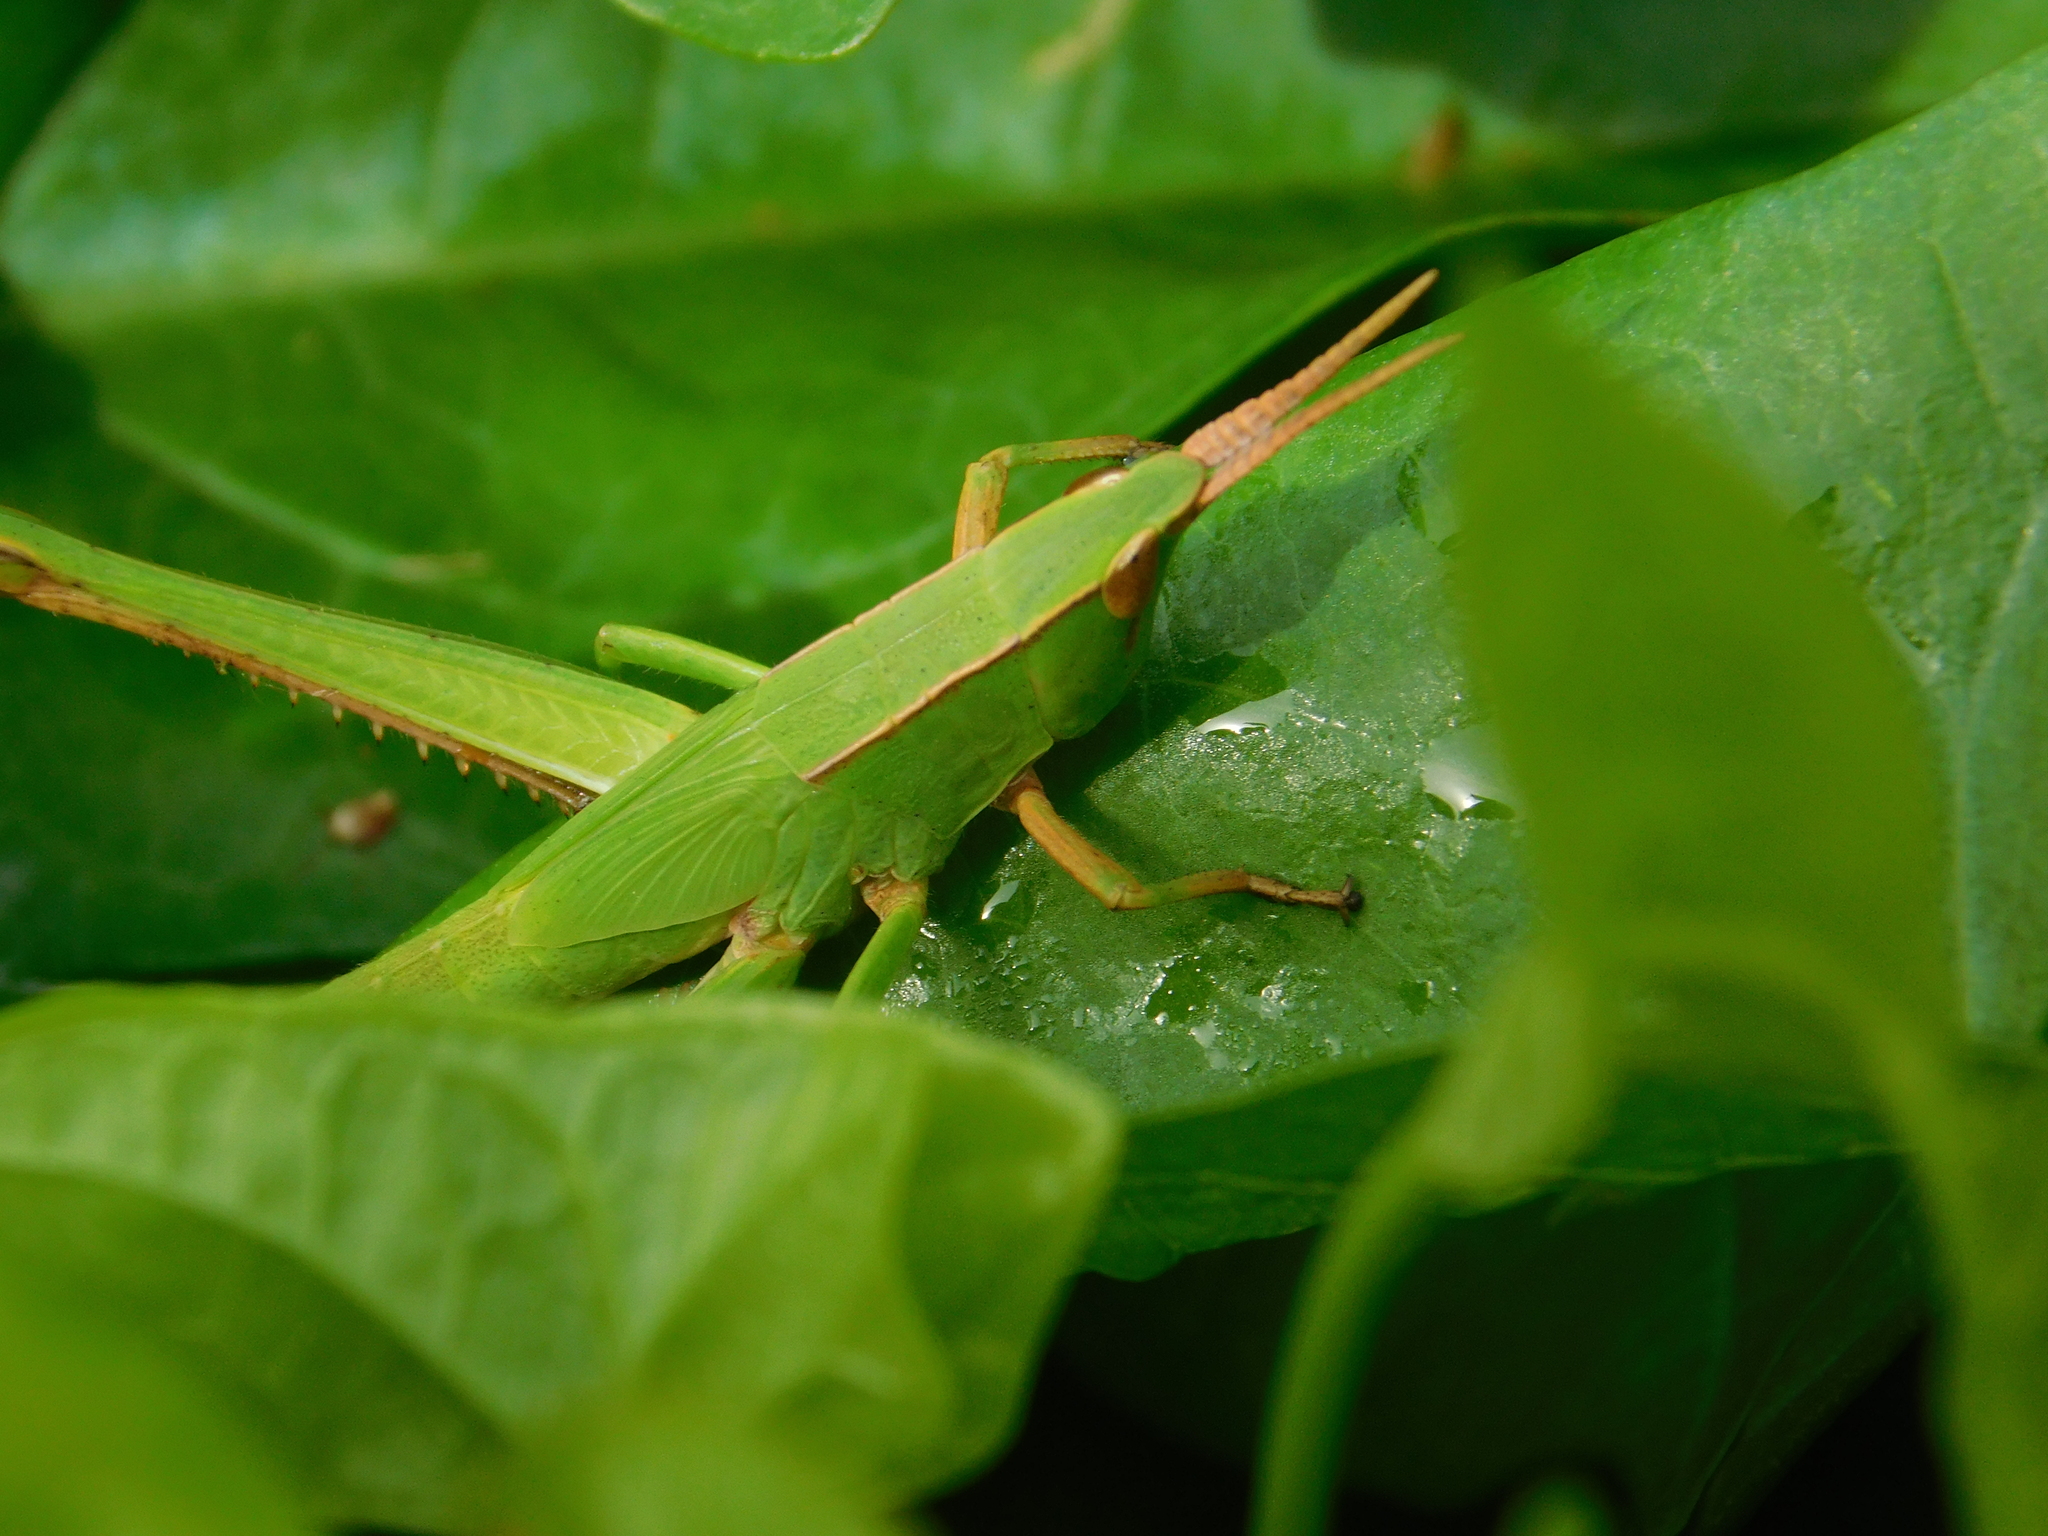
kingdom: Animalia
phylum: Arthropoda
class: Insecta
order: Orthoptera
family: Acrididae
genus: Metaleptea
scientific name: Metaleptea adspersa
